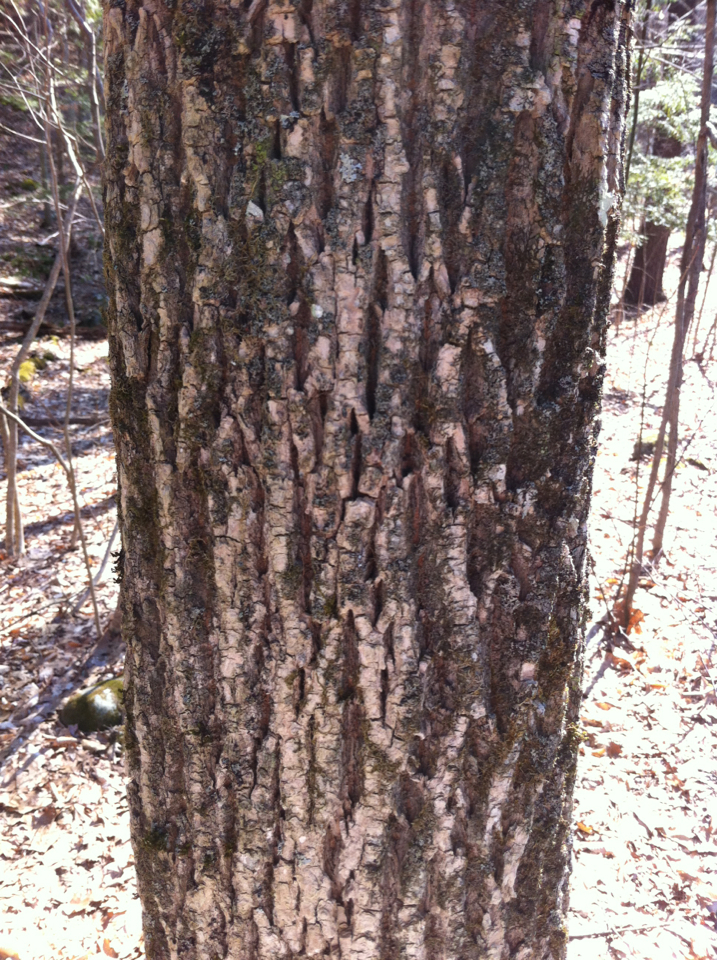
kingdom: Plantae
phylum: Tracheophyta
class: Magnoliopsida
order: Lamiales
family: Oleaceae
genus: Fraxinus
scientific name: Fraxinus americana
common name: White ash
